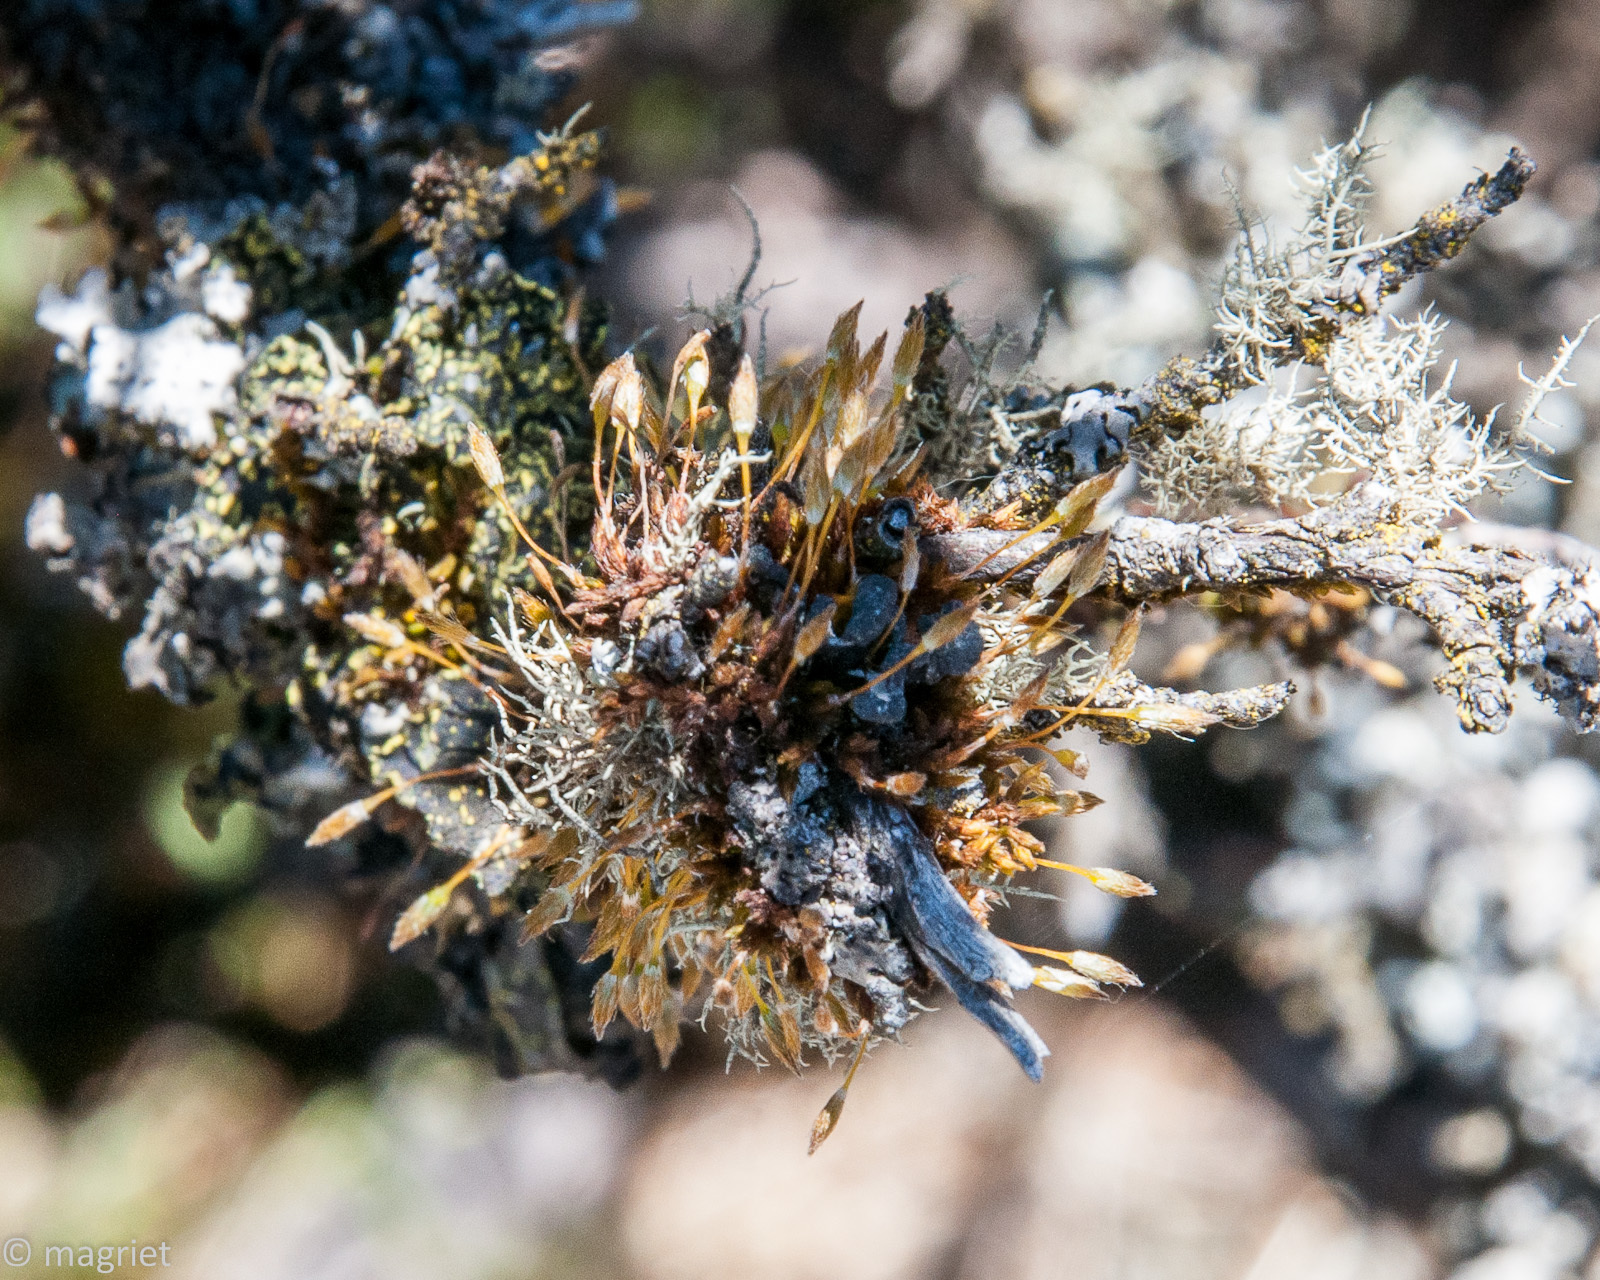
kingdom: Plantae
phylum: Bryophyta
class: Bryopsida
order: Orthotrichales
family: Orthotrichaceae
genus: Macrocoma
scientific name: Macrocoma tenuis
